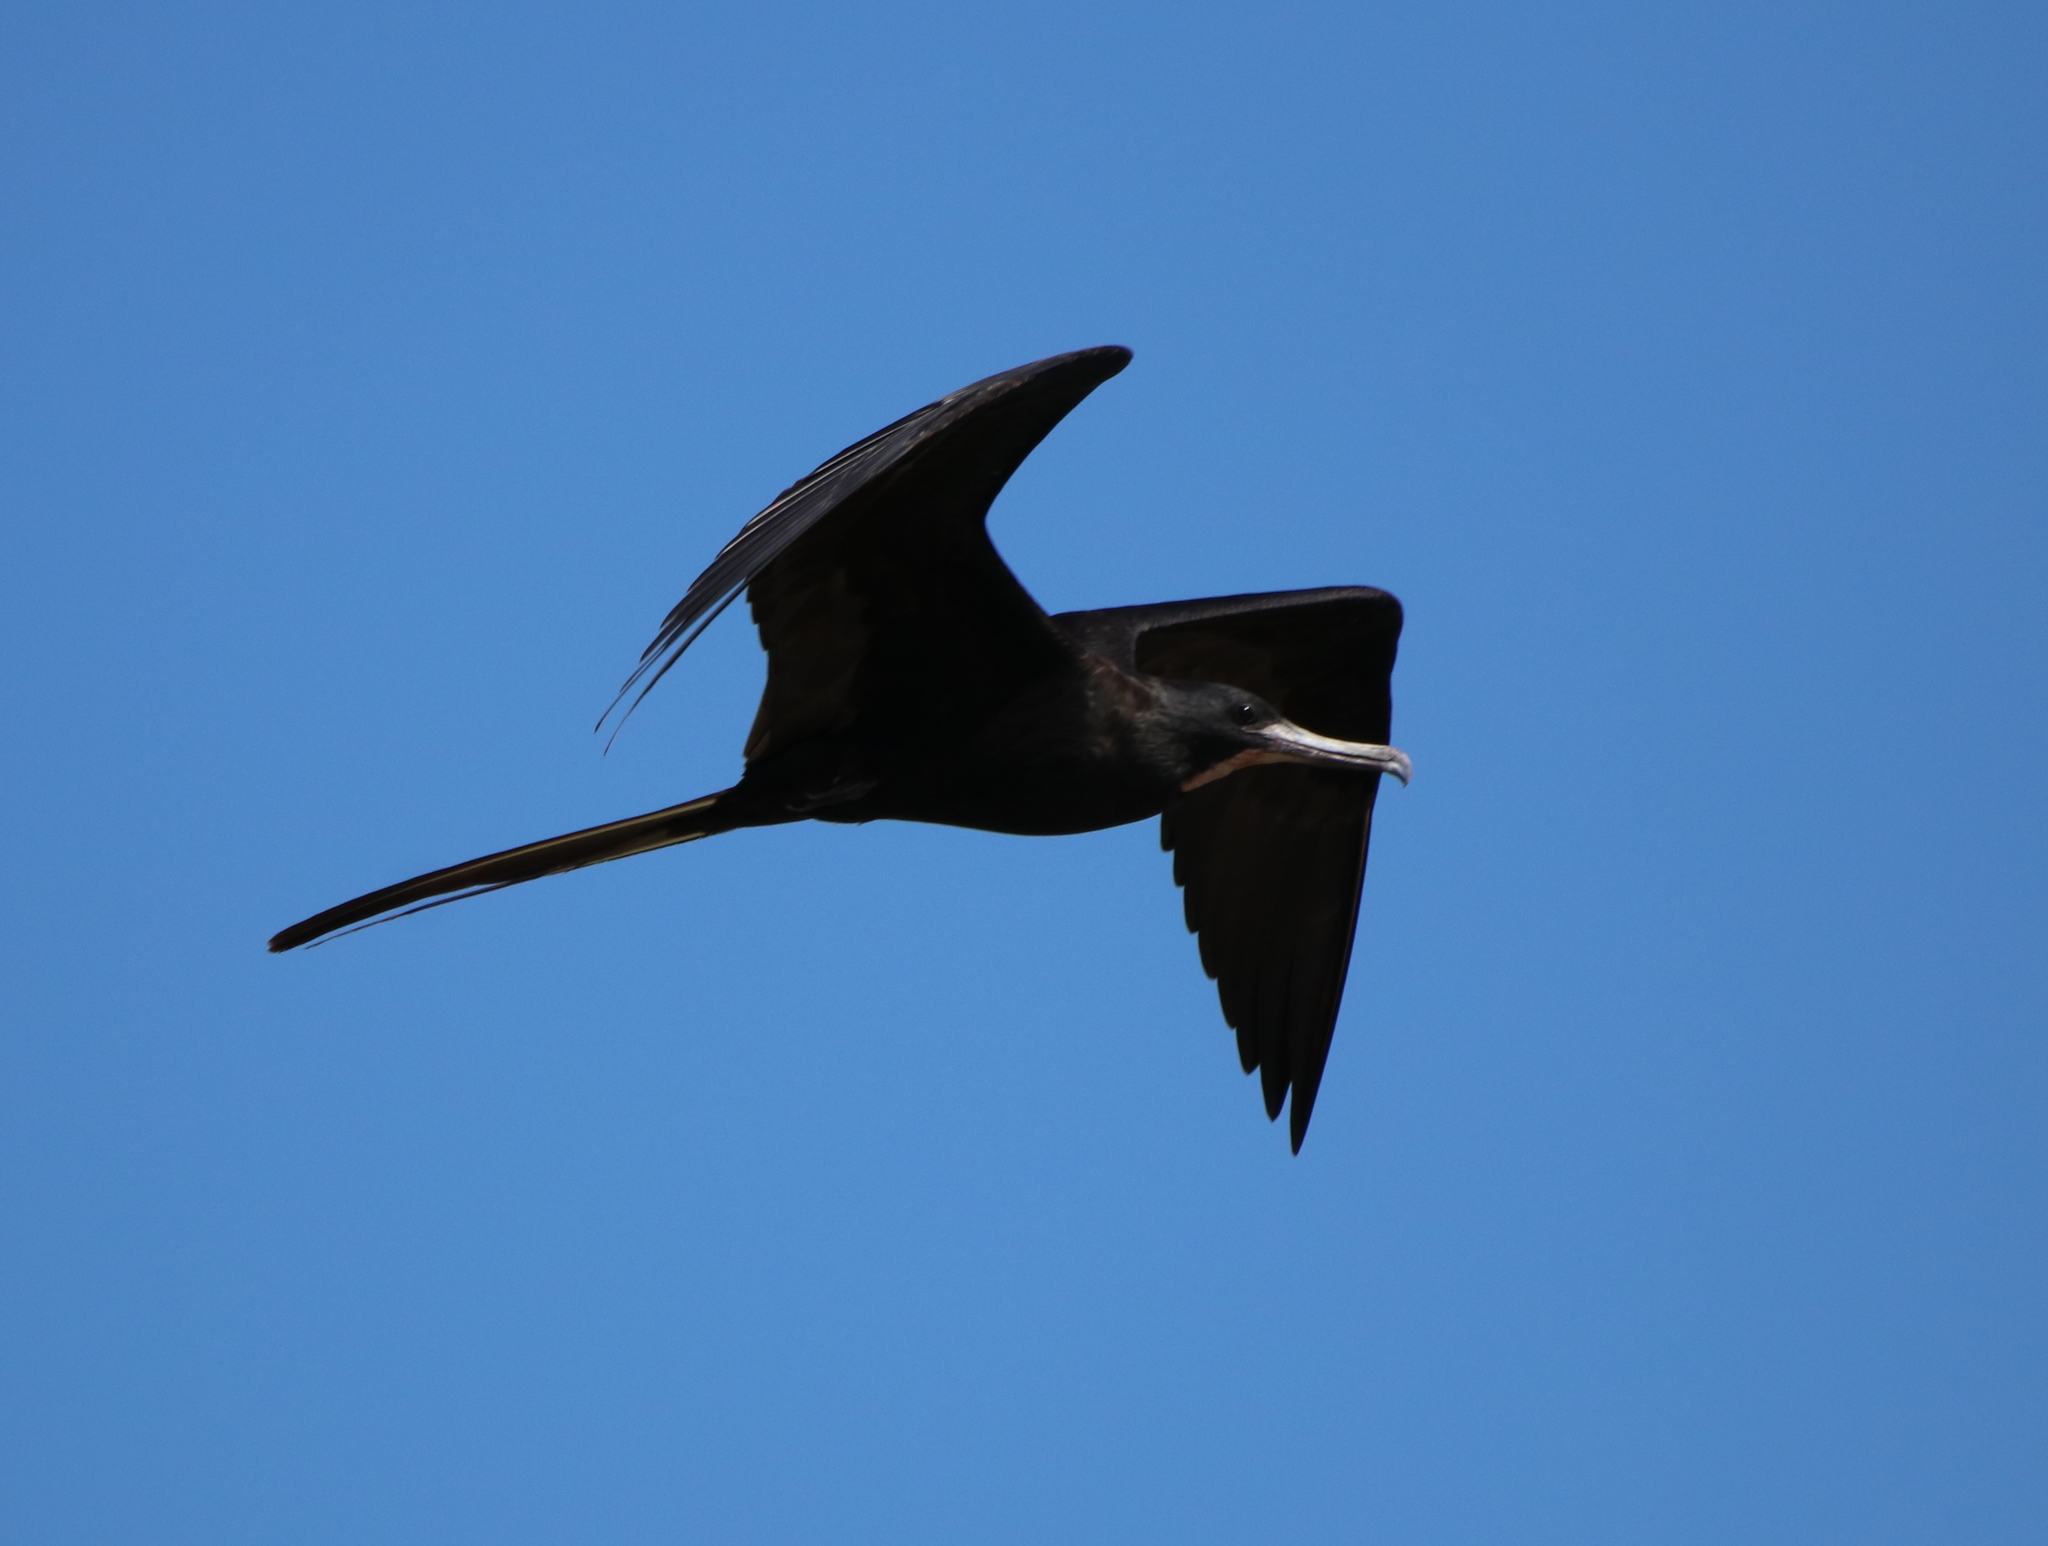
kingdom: Animalia
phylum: Chordata
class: Aves
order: Suliformes
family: Fregatidae
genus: Fregata
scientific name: Fregata magnificens
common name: Magnificent frigatebird
